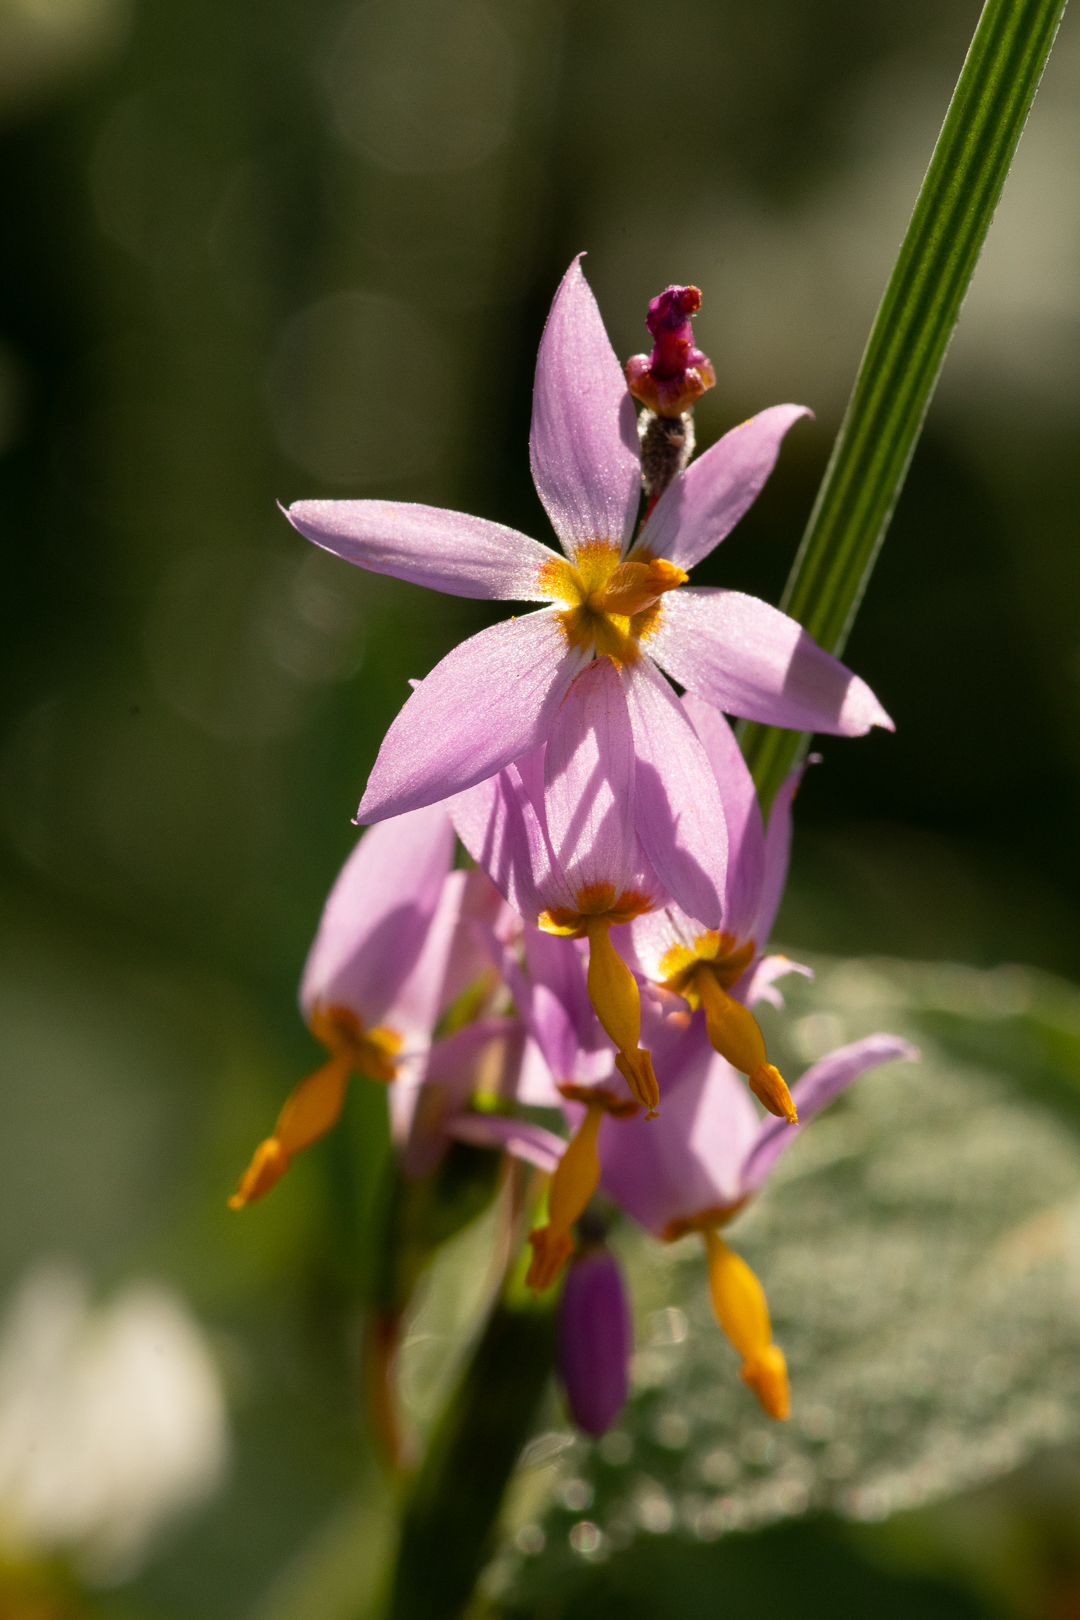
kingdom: Plantae
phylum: Tracheophyta
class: Liliopsida
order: Asparagales
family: Iridaceae
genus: Olsynium
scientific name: Olsynium philippii
